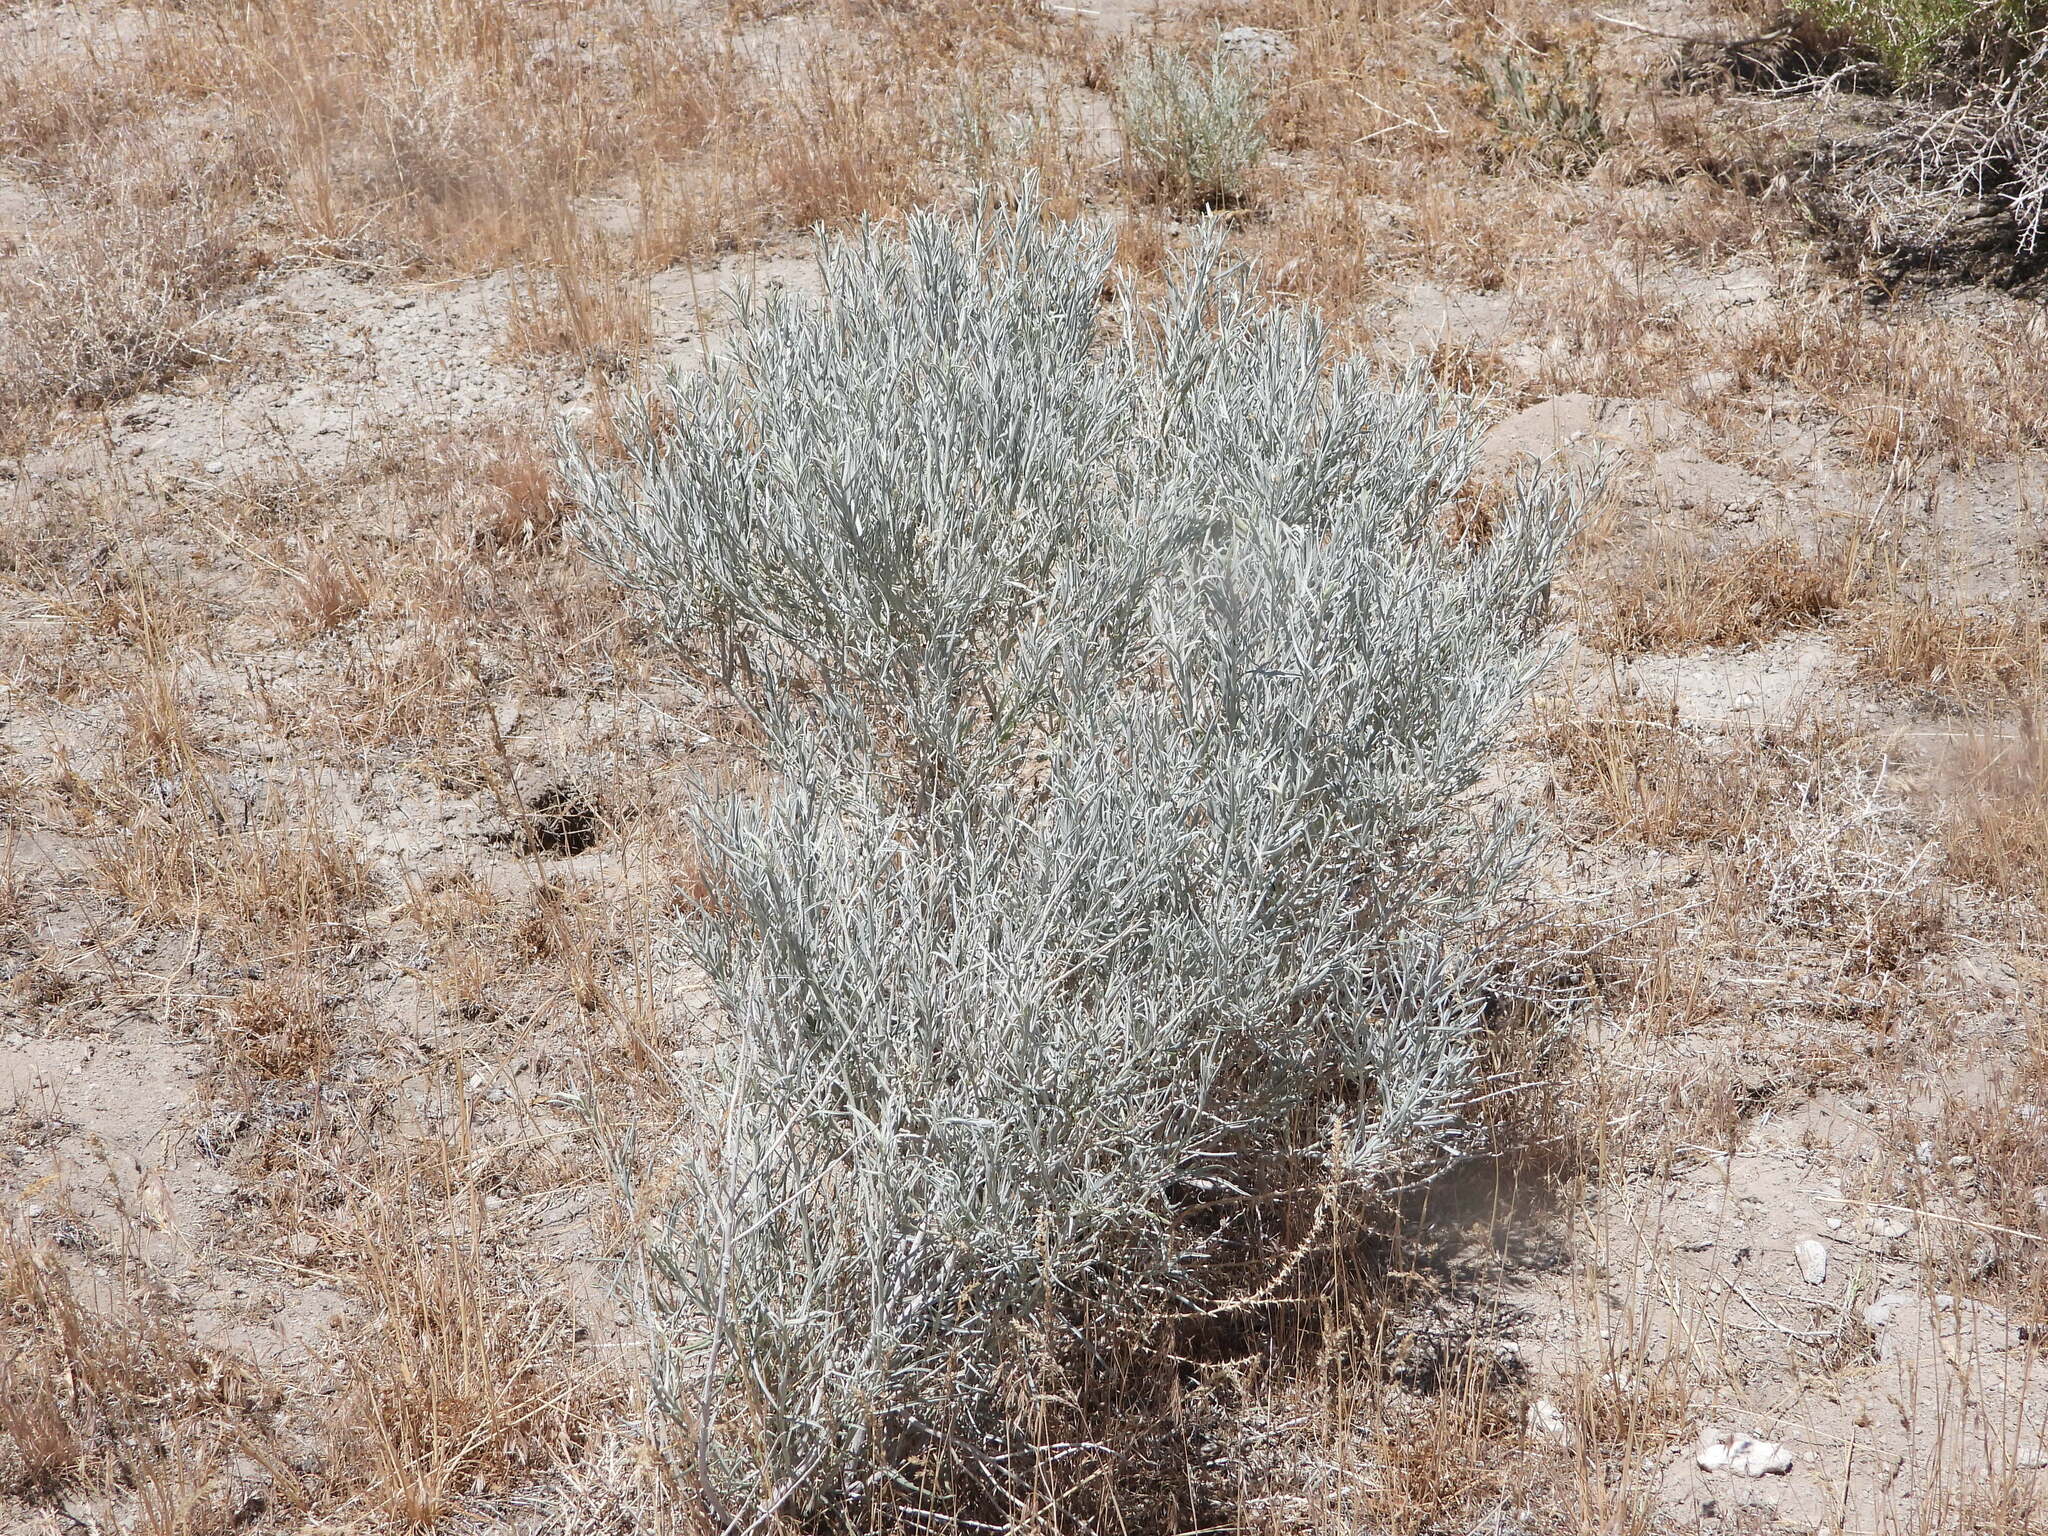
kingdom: Plantae
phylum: Tracheophyta
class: Magnoliopsida
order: Asterales
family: Asteraceae
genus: Ericameria
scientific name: Ericameria nauseosa
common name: Rubber rabbitbrush
